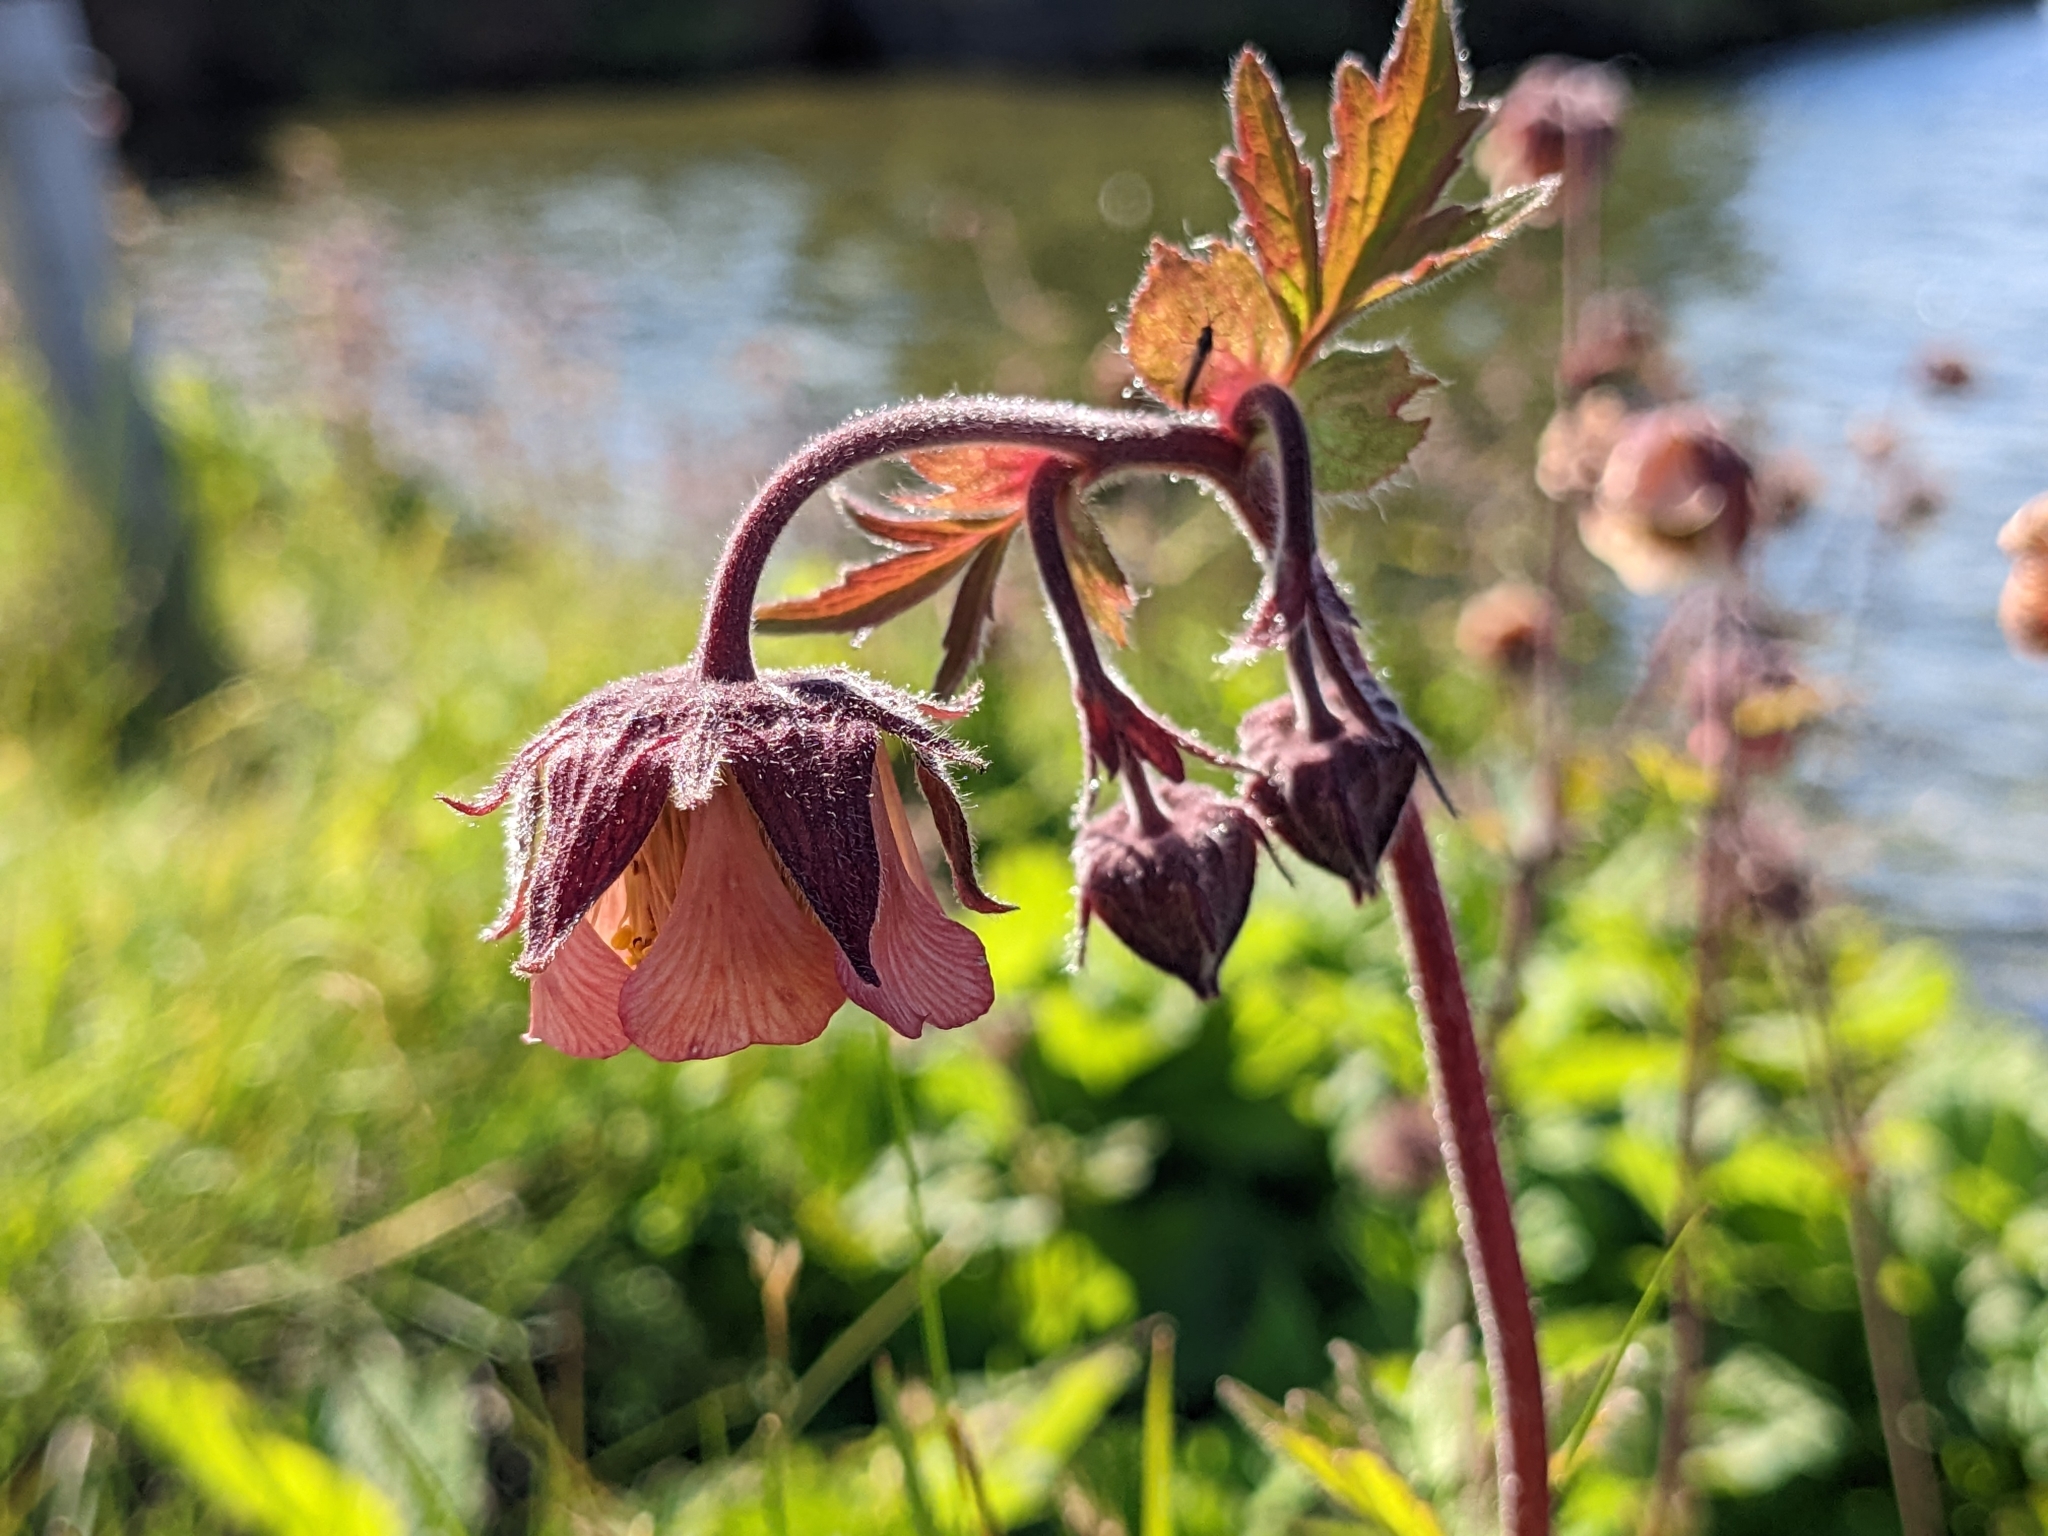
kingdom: Plantae
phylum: Tracheophyta
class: Magnoliopsida
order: Rosales
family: Rosaceae
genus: Geum
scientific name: Geum rivale
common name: Water avens
